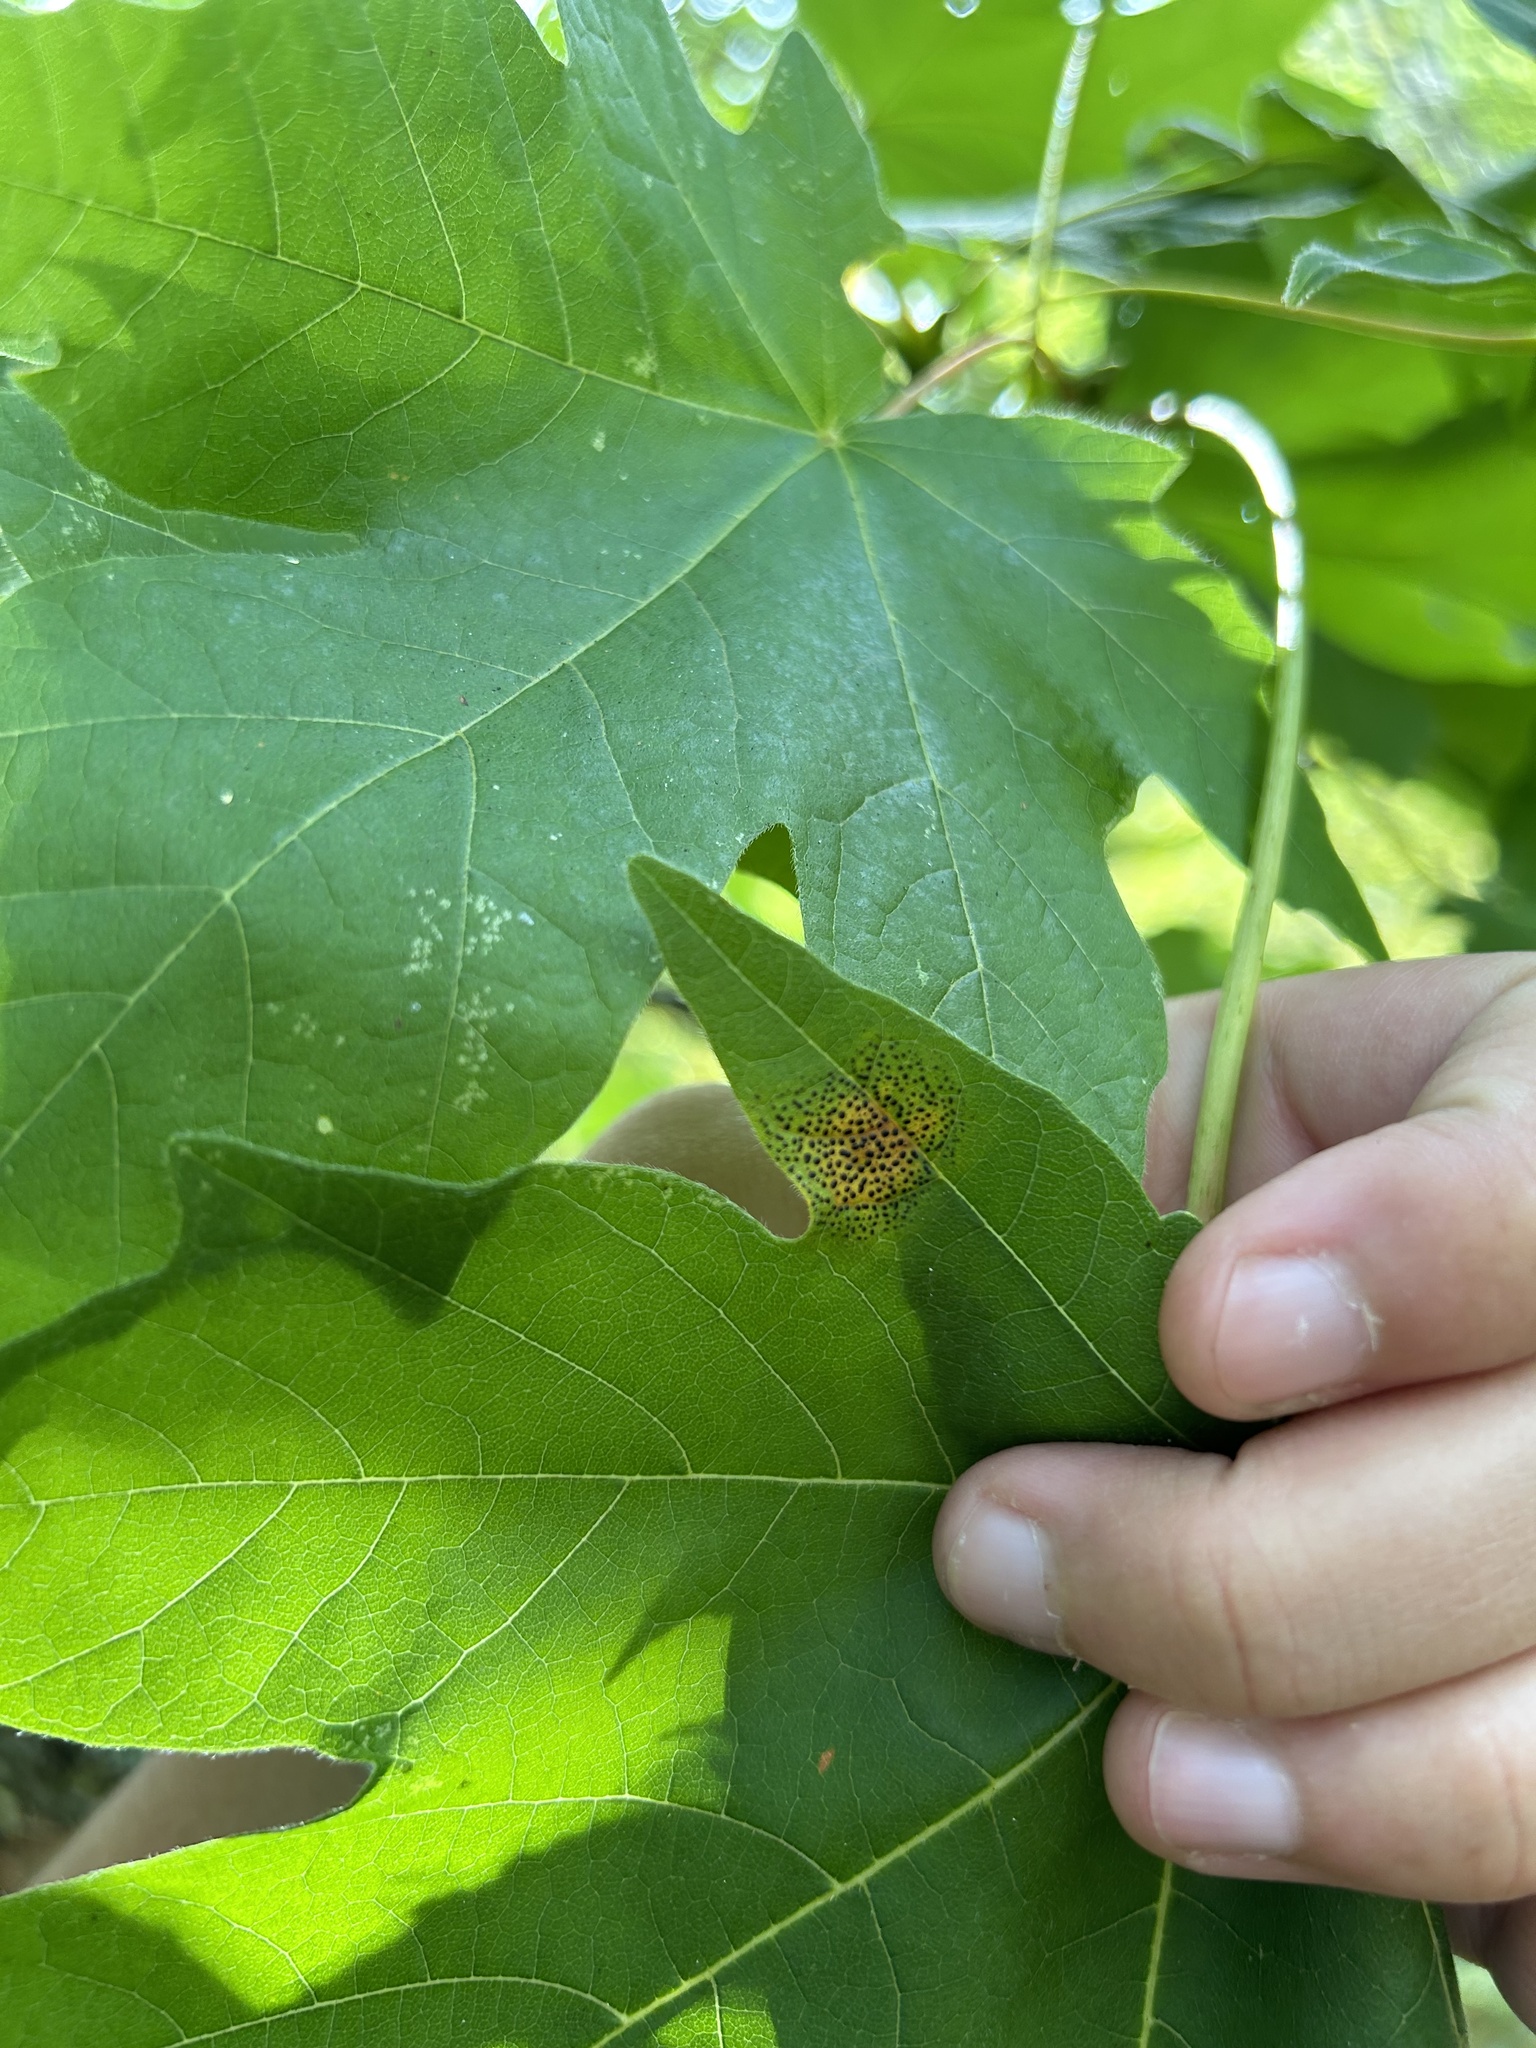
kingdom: Fungi
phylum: Ascomycota
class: Leotiomycetes
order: Rhytismatales
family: Rhytismataceae
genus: Rhytisma
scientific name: Rhytisma punctatum
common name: Speckled tar spot
